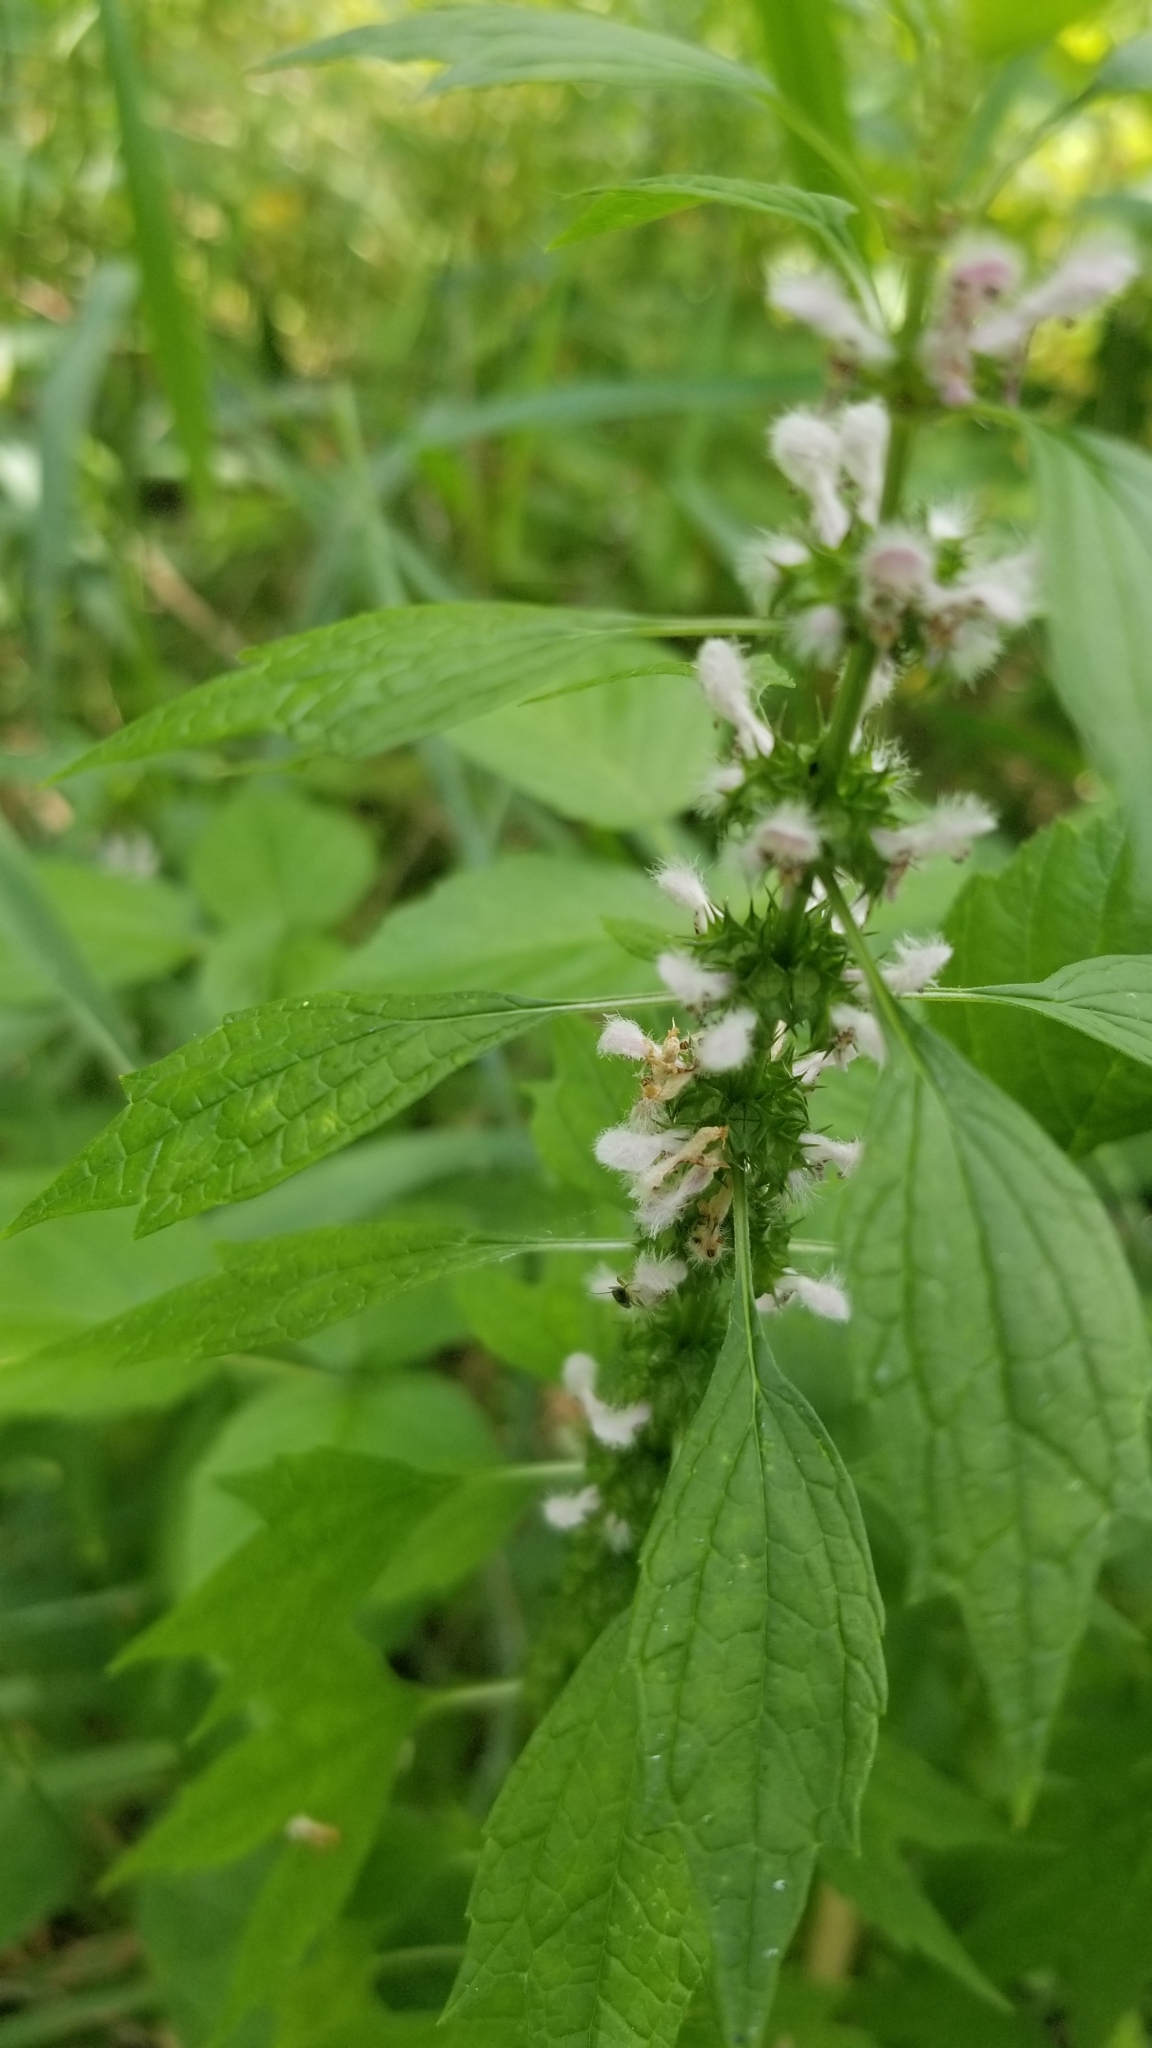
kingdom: Plantae
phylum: Tracheophyta
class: Magnoliopsida
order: Lamiales
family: Lamiaceae
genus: Leonurus
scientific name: Leonurus cardiaca
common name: Motherwort
